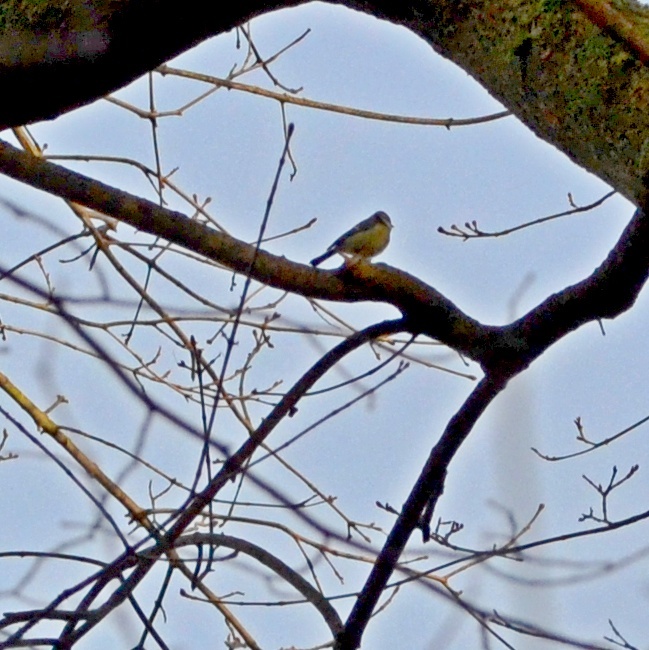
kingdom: Animalia
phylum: Chordata
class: Aves
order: Passeriformes
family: Paridae
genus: Cyanistes
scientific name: Cyanistes caeruleus
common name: Eurasian blue tit
